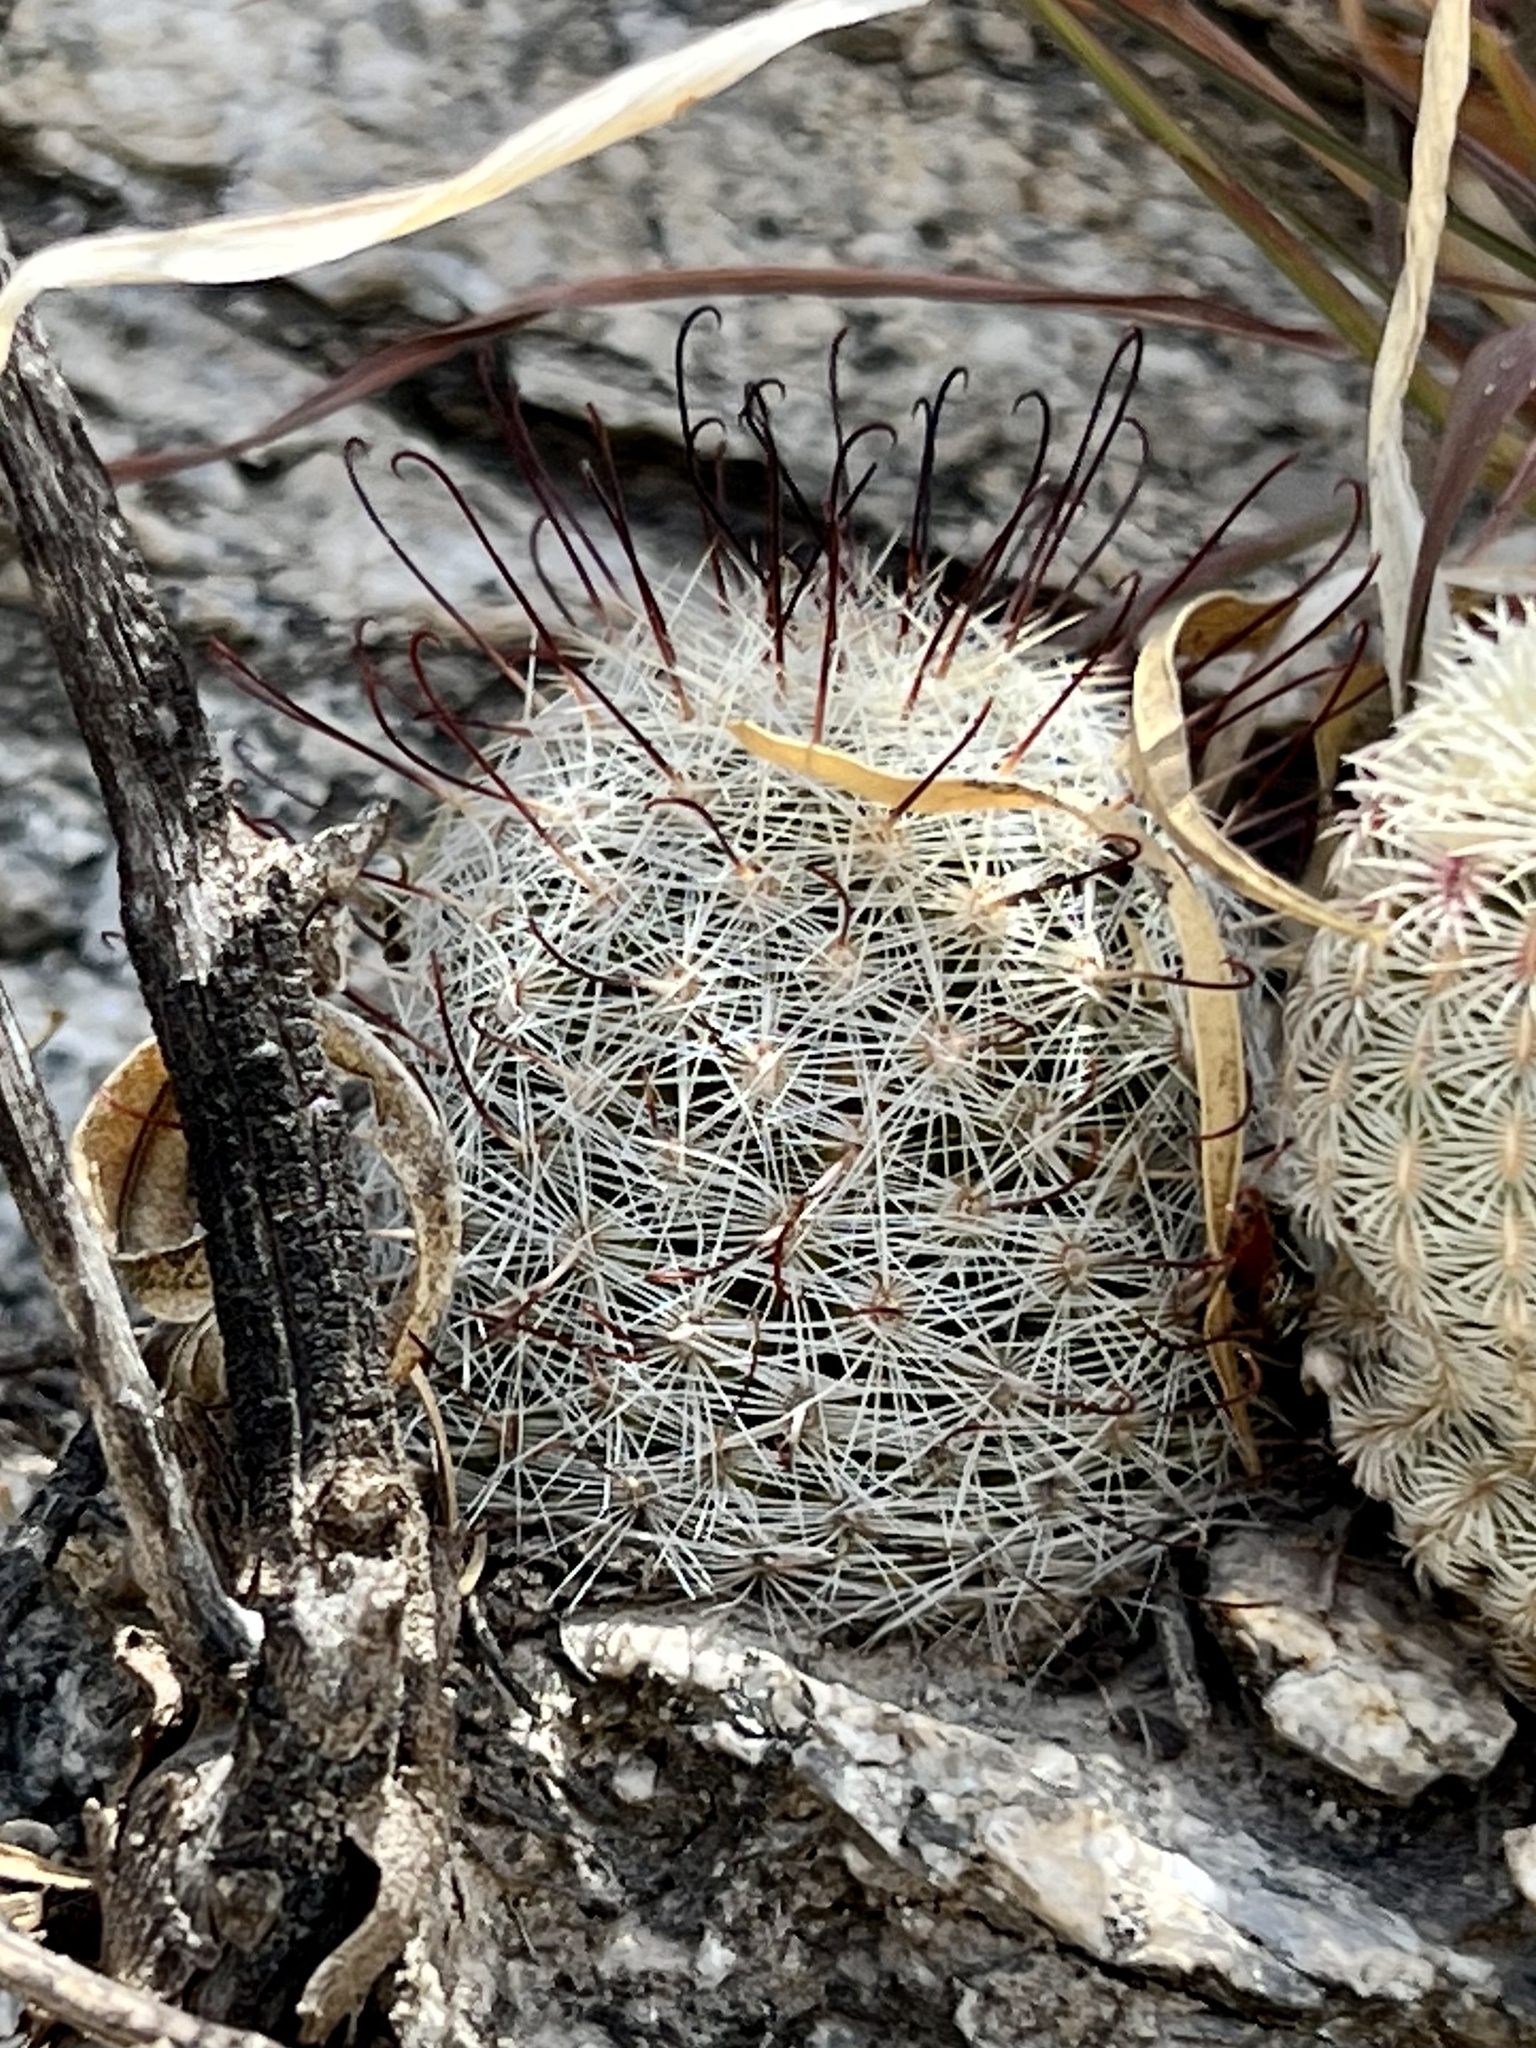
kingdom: Plantae
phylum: Tracheophyta
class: Magnoliopsida
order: Caryophyllales
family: Cactaceae
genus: Cochemiea
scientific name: Cochemiea grahamii
